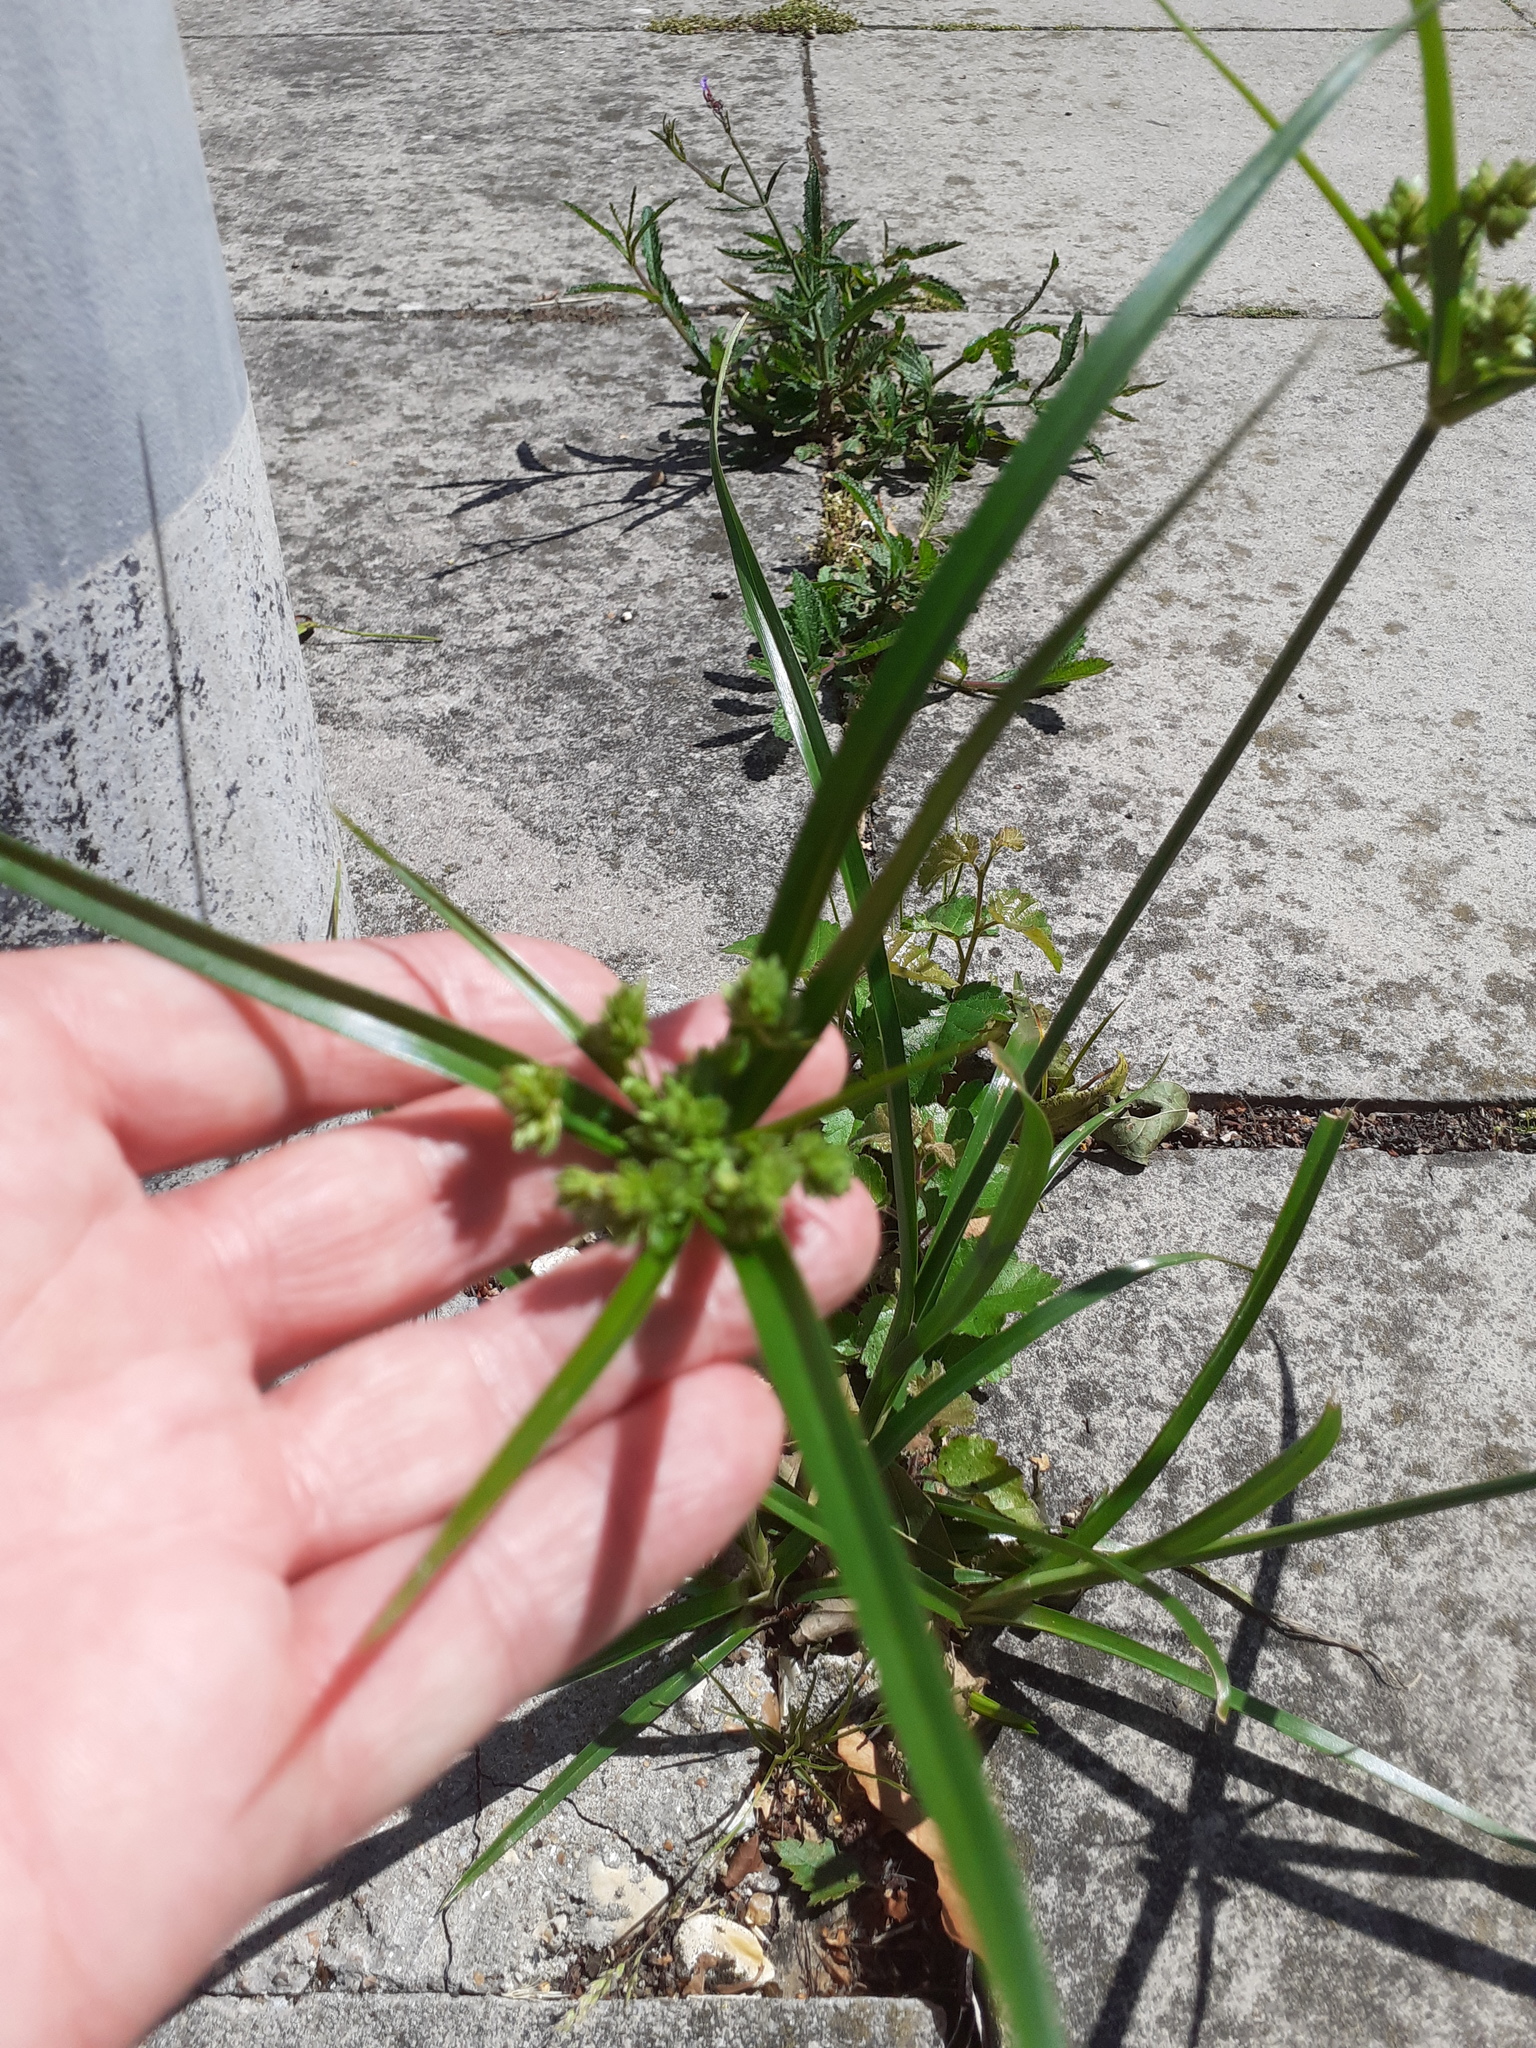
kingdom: Plantae
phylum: Tracheophyta
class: Liliopsida
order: Poales
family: Cyperaceae
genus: Cyperus
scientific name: Cyperus eragrostis
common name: Tall flatsedge
